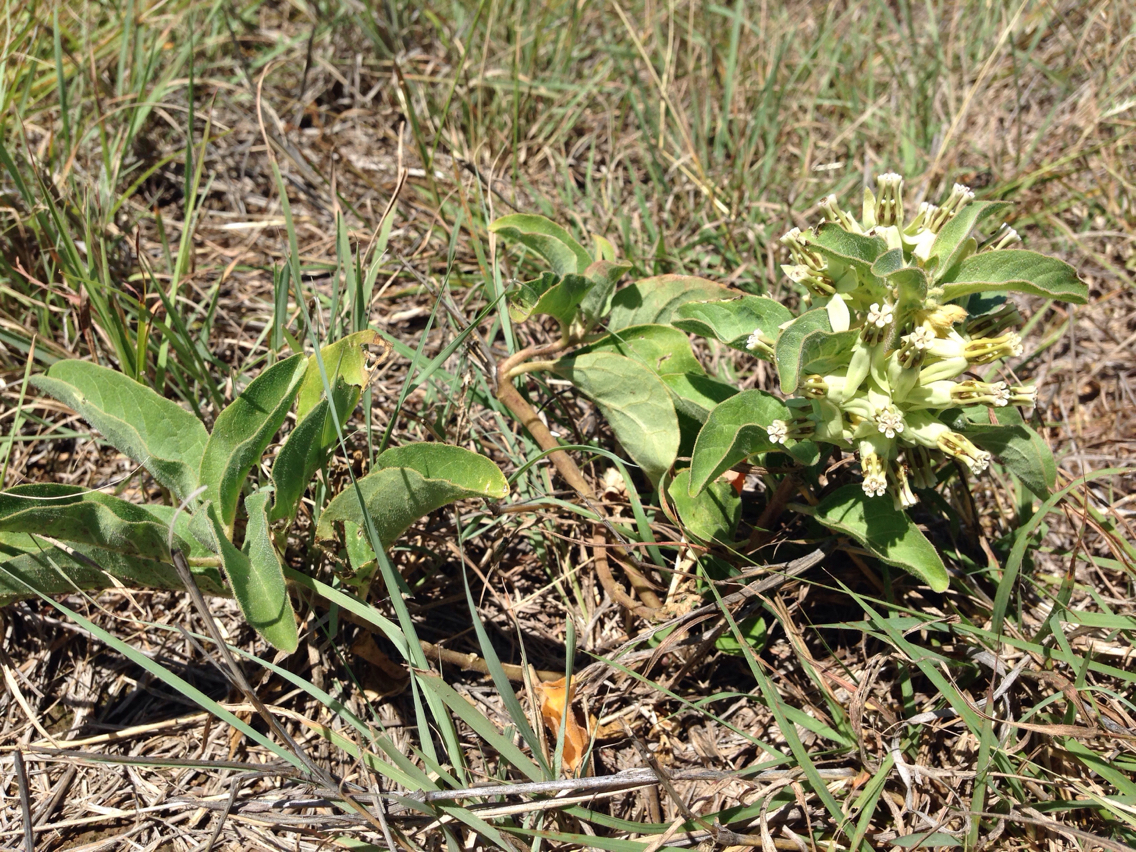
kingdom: Plantae
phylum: Tracheophyta
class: Magnoliopsida
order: Gentianales
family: Apocynaceae
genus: Asclepias
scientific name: Asclepias oenotheroides
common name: Zizotes milkweed
